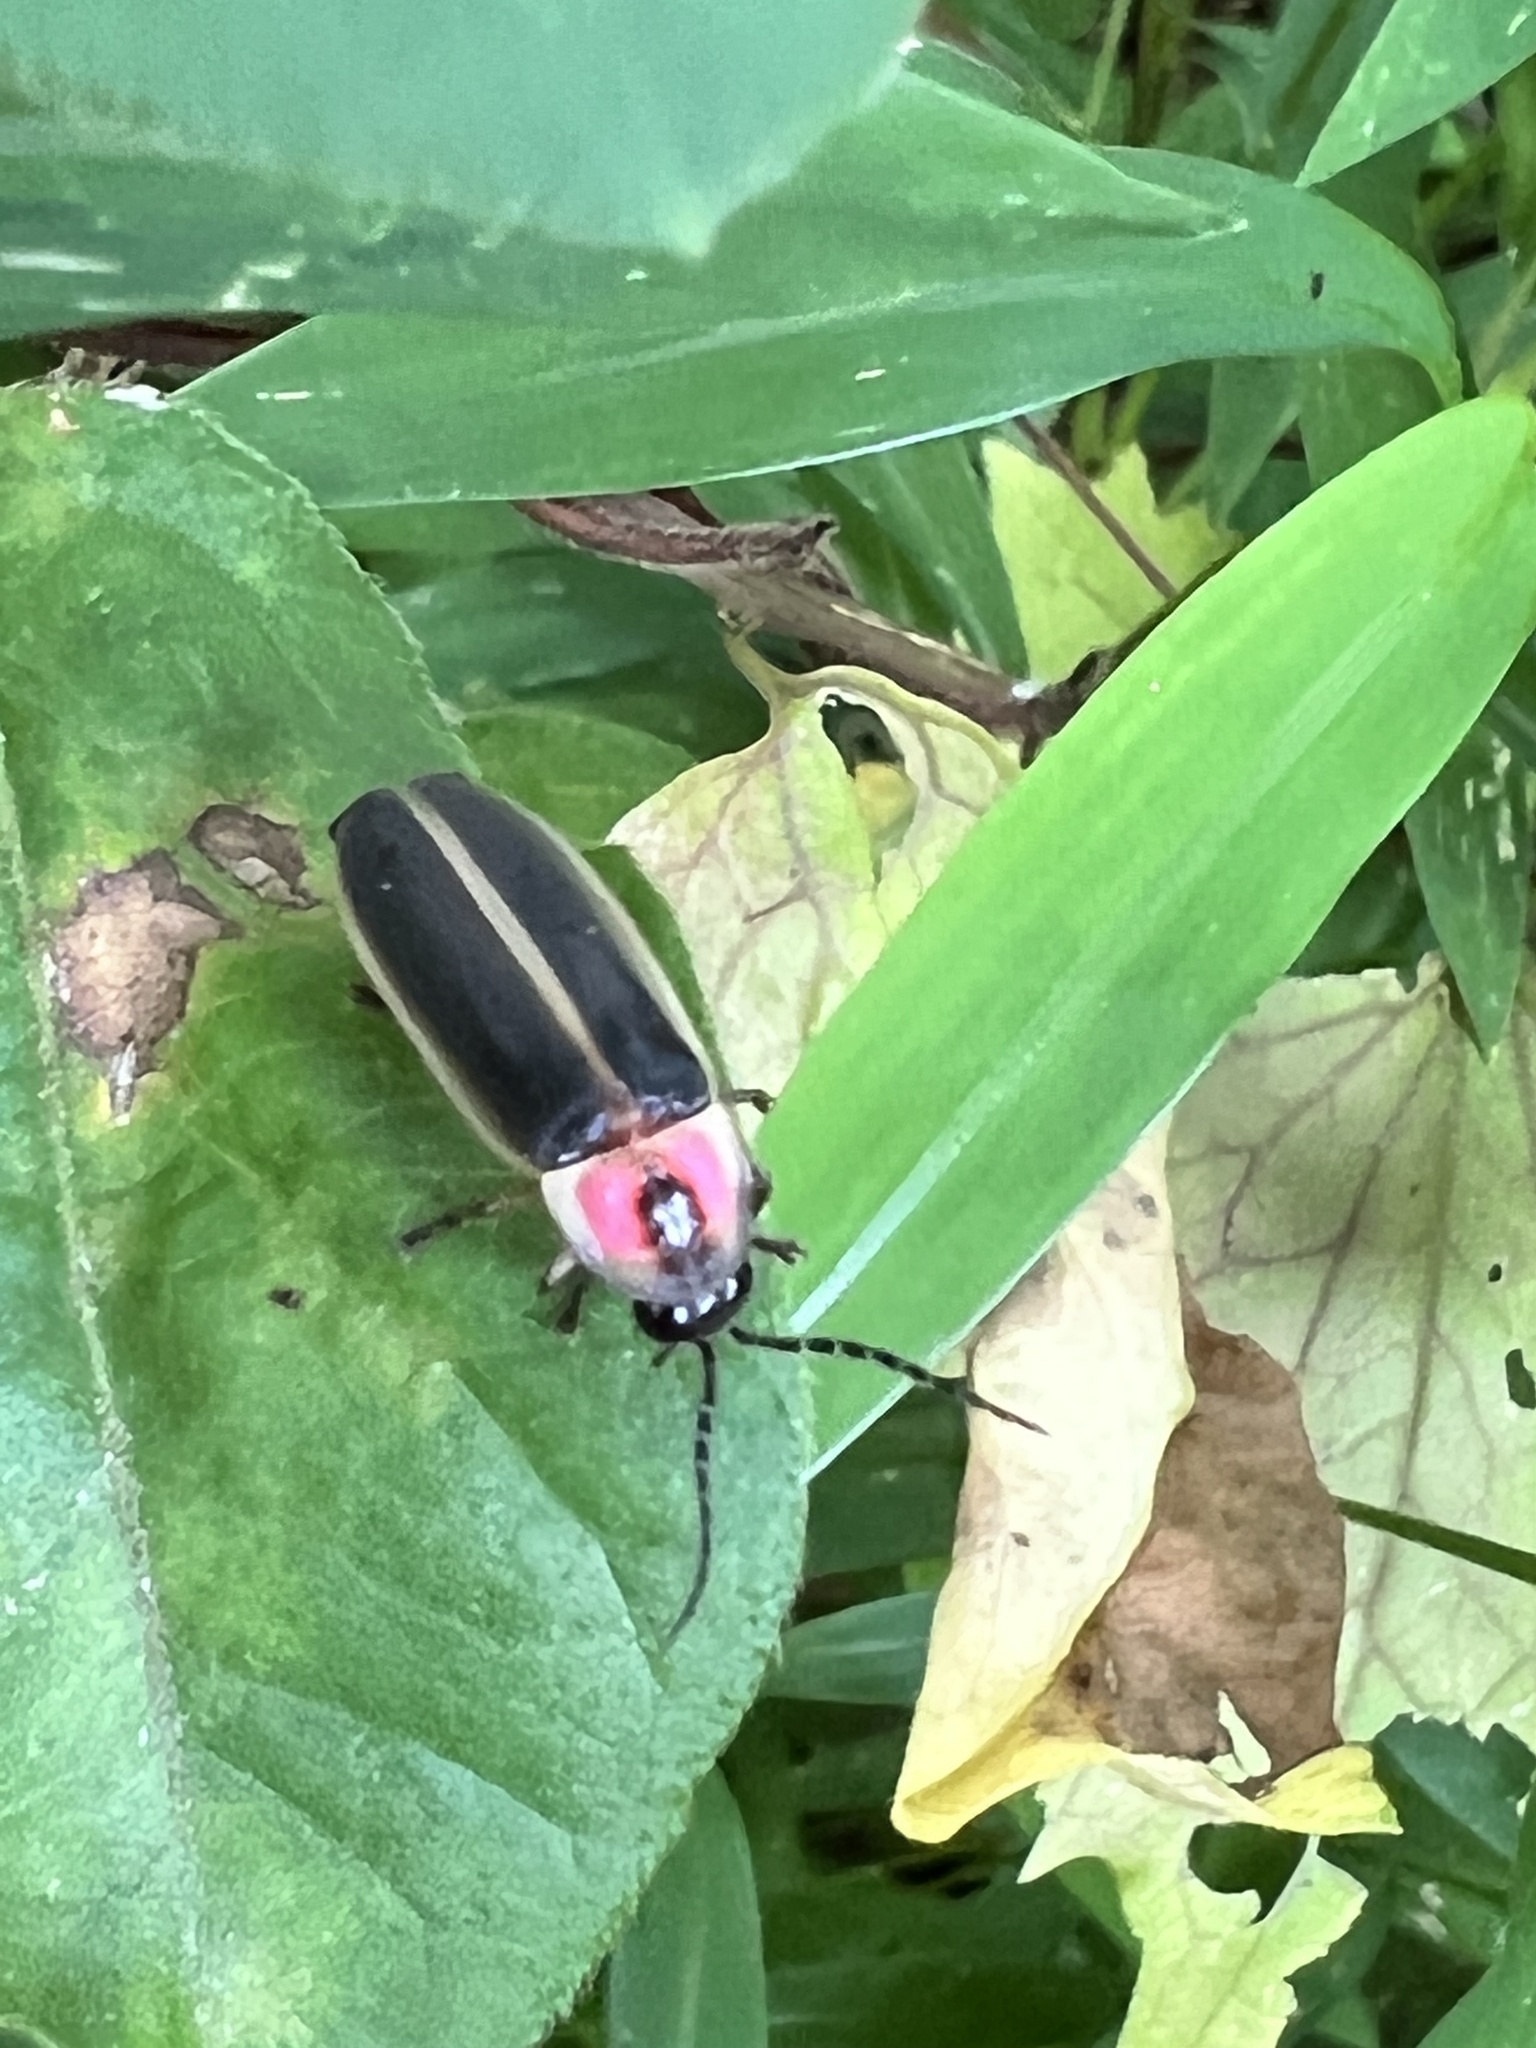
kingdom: Animalia
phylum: Arthropoda
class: Insecta
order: Coleoptera
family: Lampyridae
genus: Photinus
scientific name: Photinus pyralis
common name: Big dipper firefly
